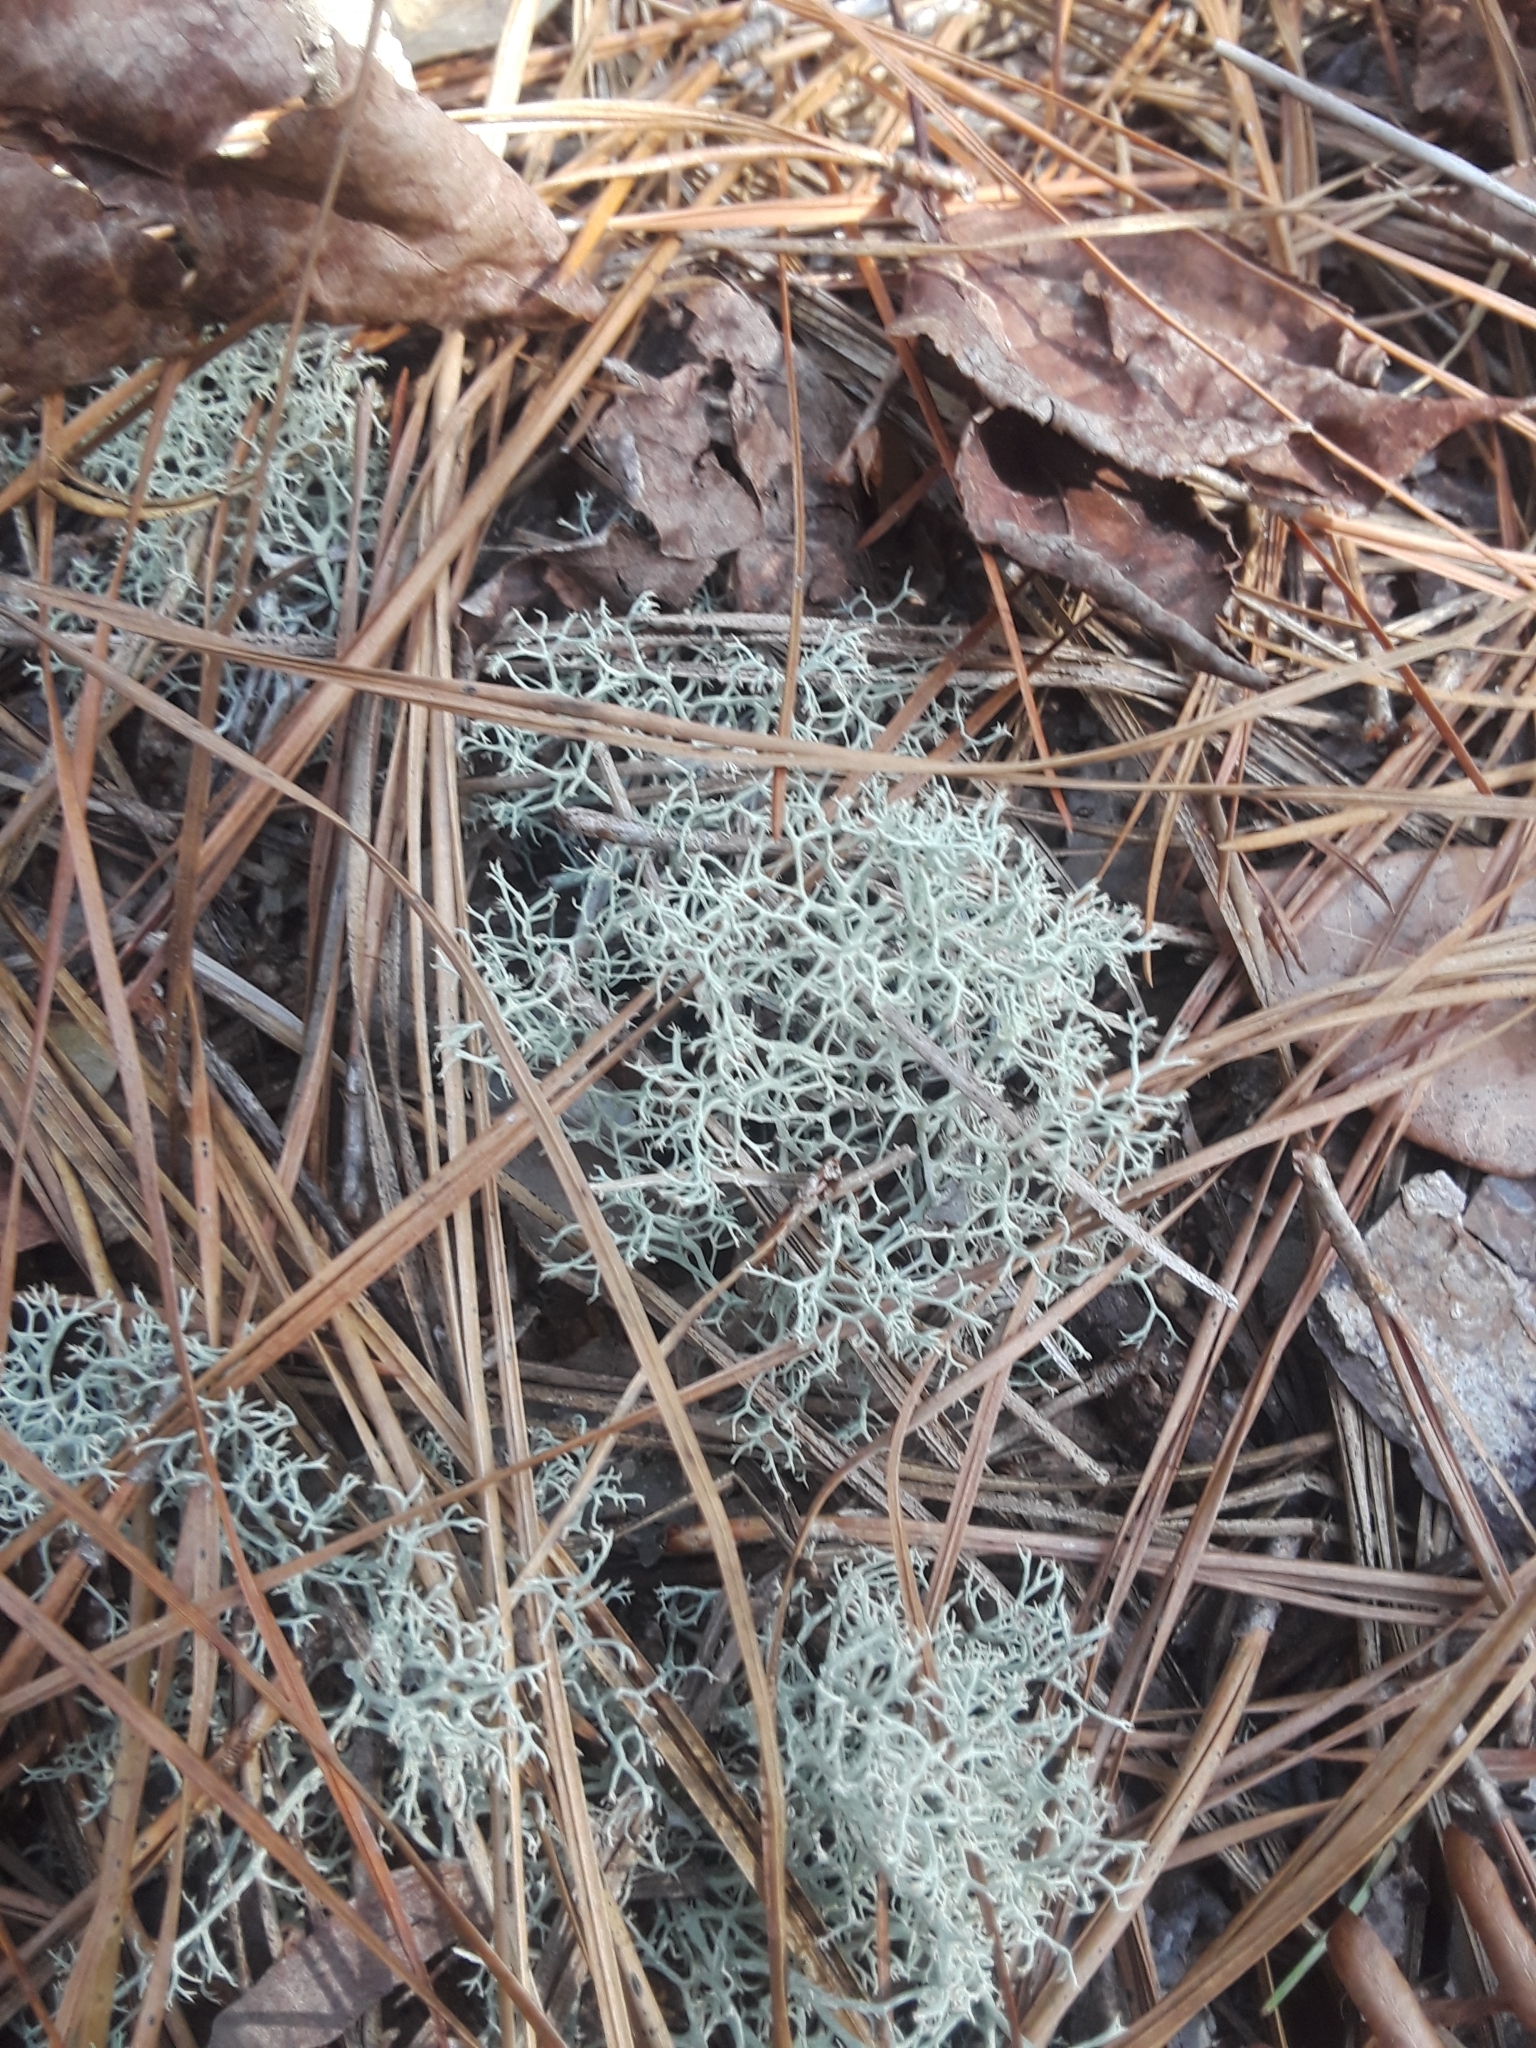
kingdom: Fungi
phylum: Ascomycota
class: Lecanoromycetes
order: Lecanorales
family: Cladoniaceae
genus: Cladonia
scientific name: Cladonia subtenuis
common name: Dixie reindeer lichen
